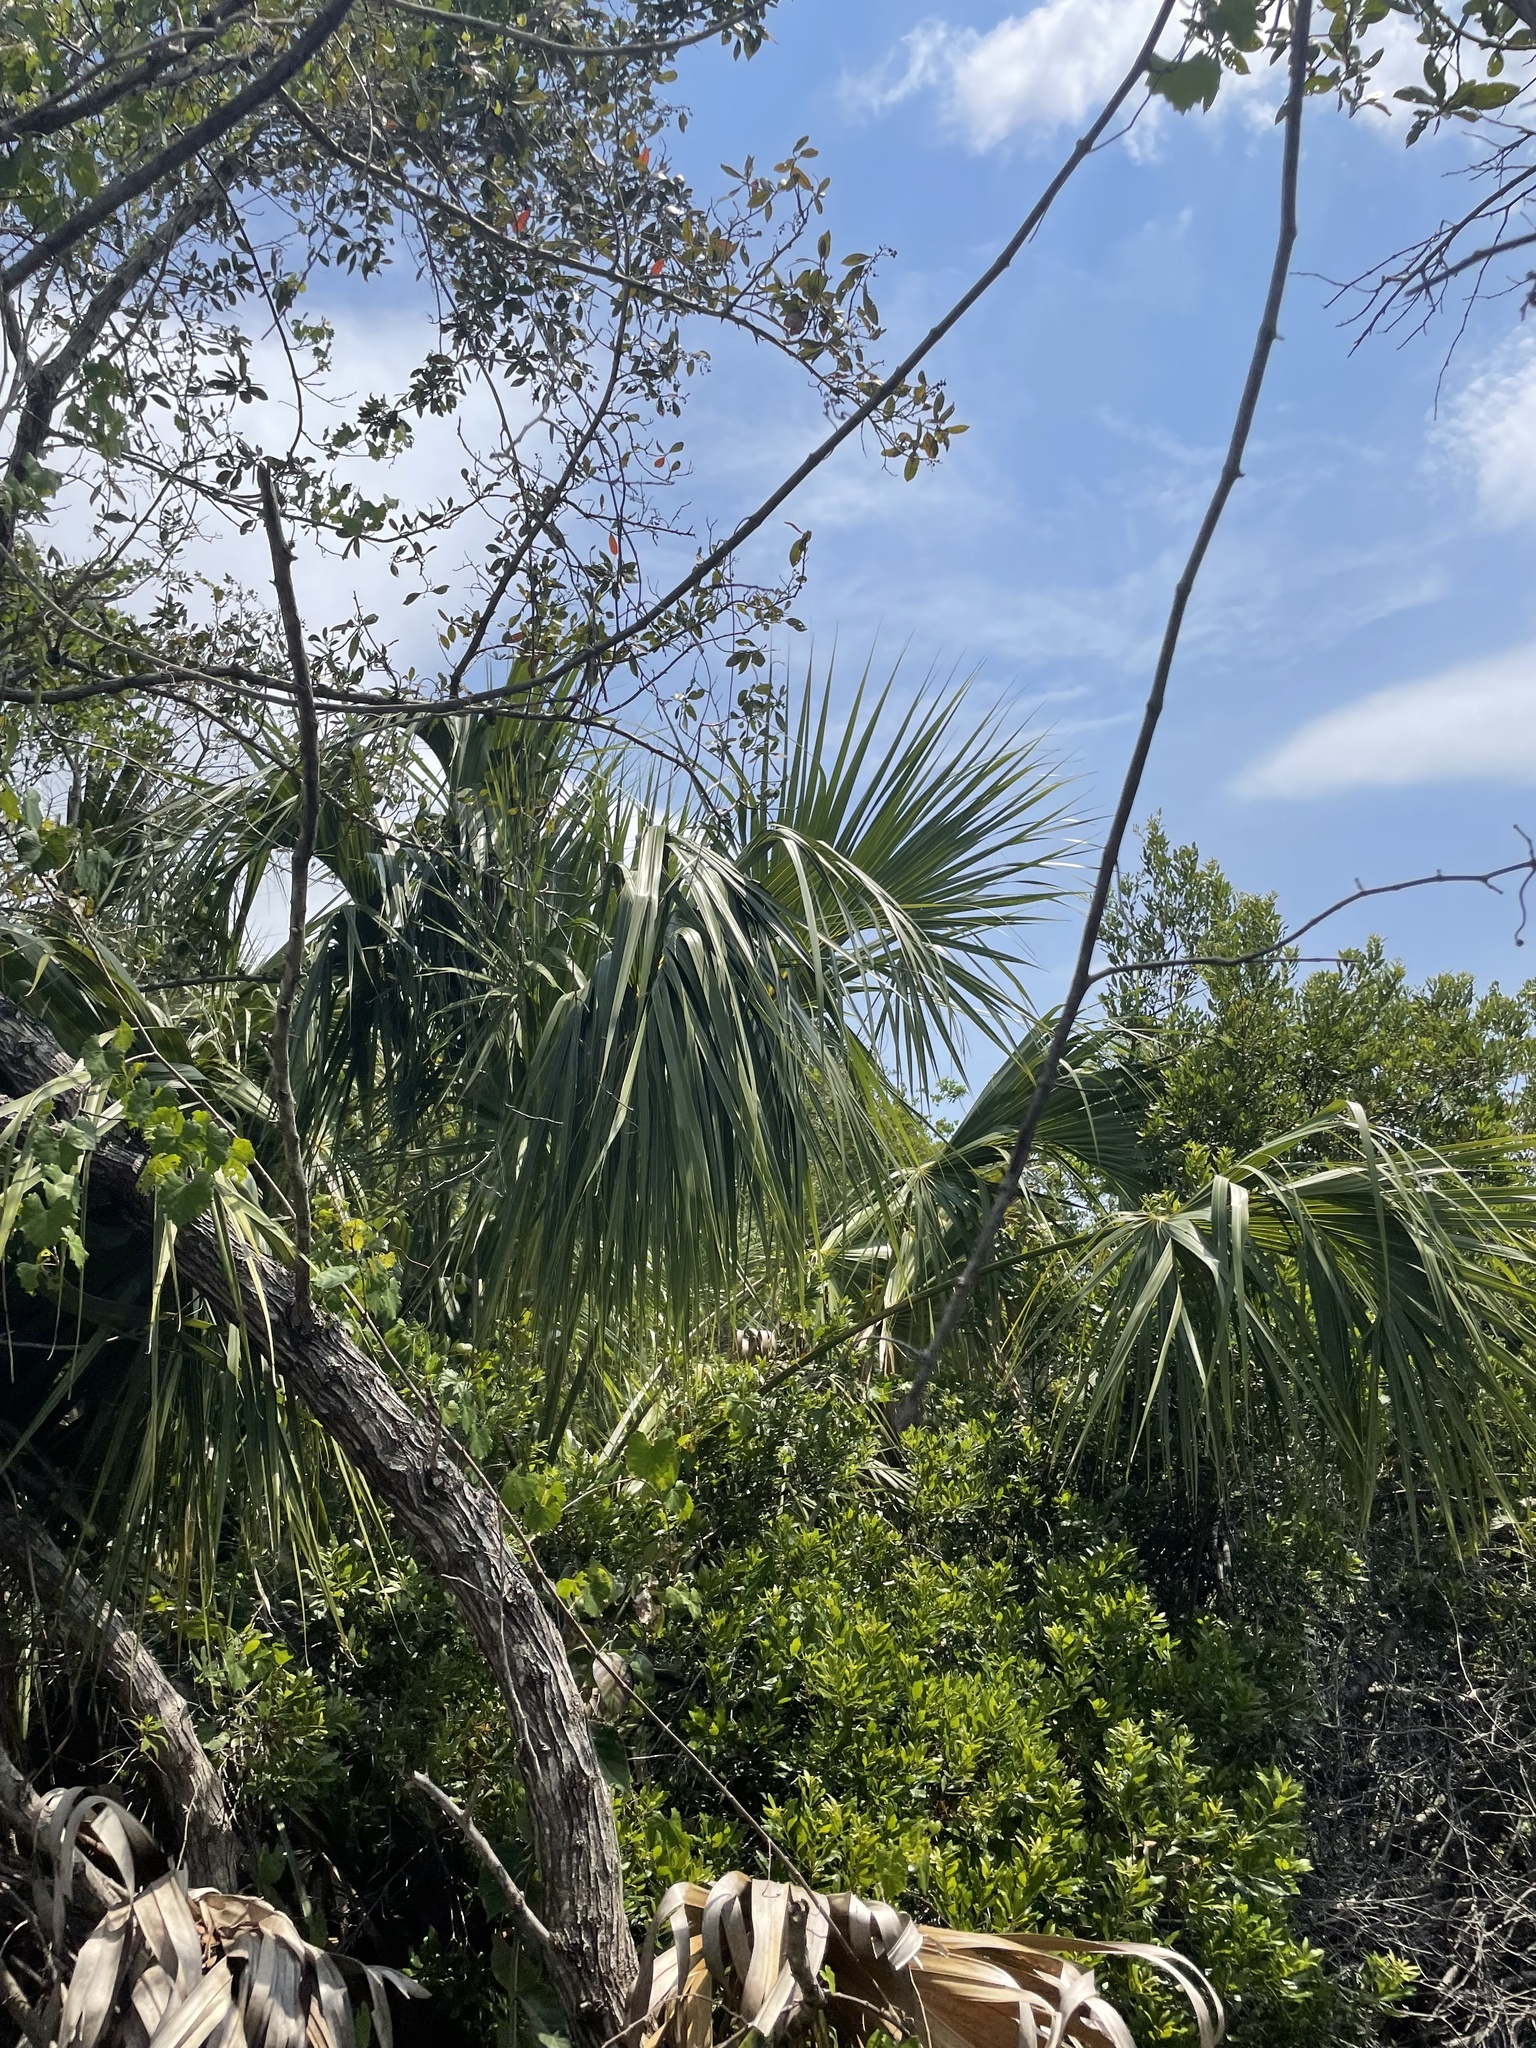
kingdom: Plantae
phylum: Tracheophyta
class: Liliopsida
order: Arecales
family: Arecaceae
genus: Sabal
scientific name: Sabal palmetto
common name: Blue palmetto
